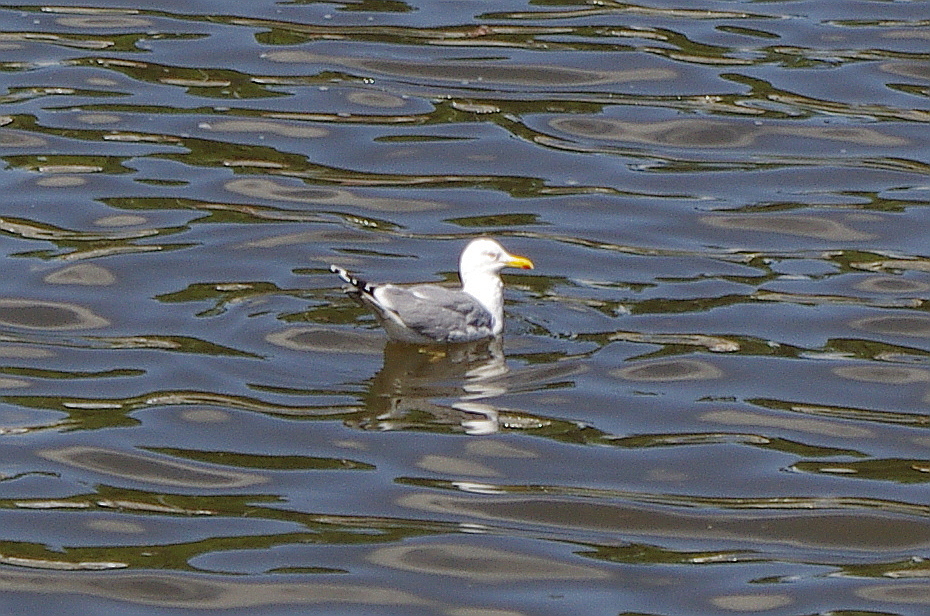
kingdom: Animalia
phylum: Chordata
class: Aves
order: Charadriiformes
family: Laridae
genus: Larus
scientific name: Larus argentatus
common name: Herring gull
